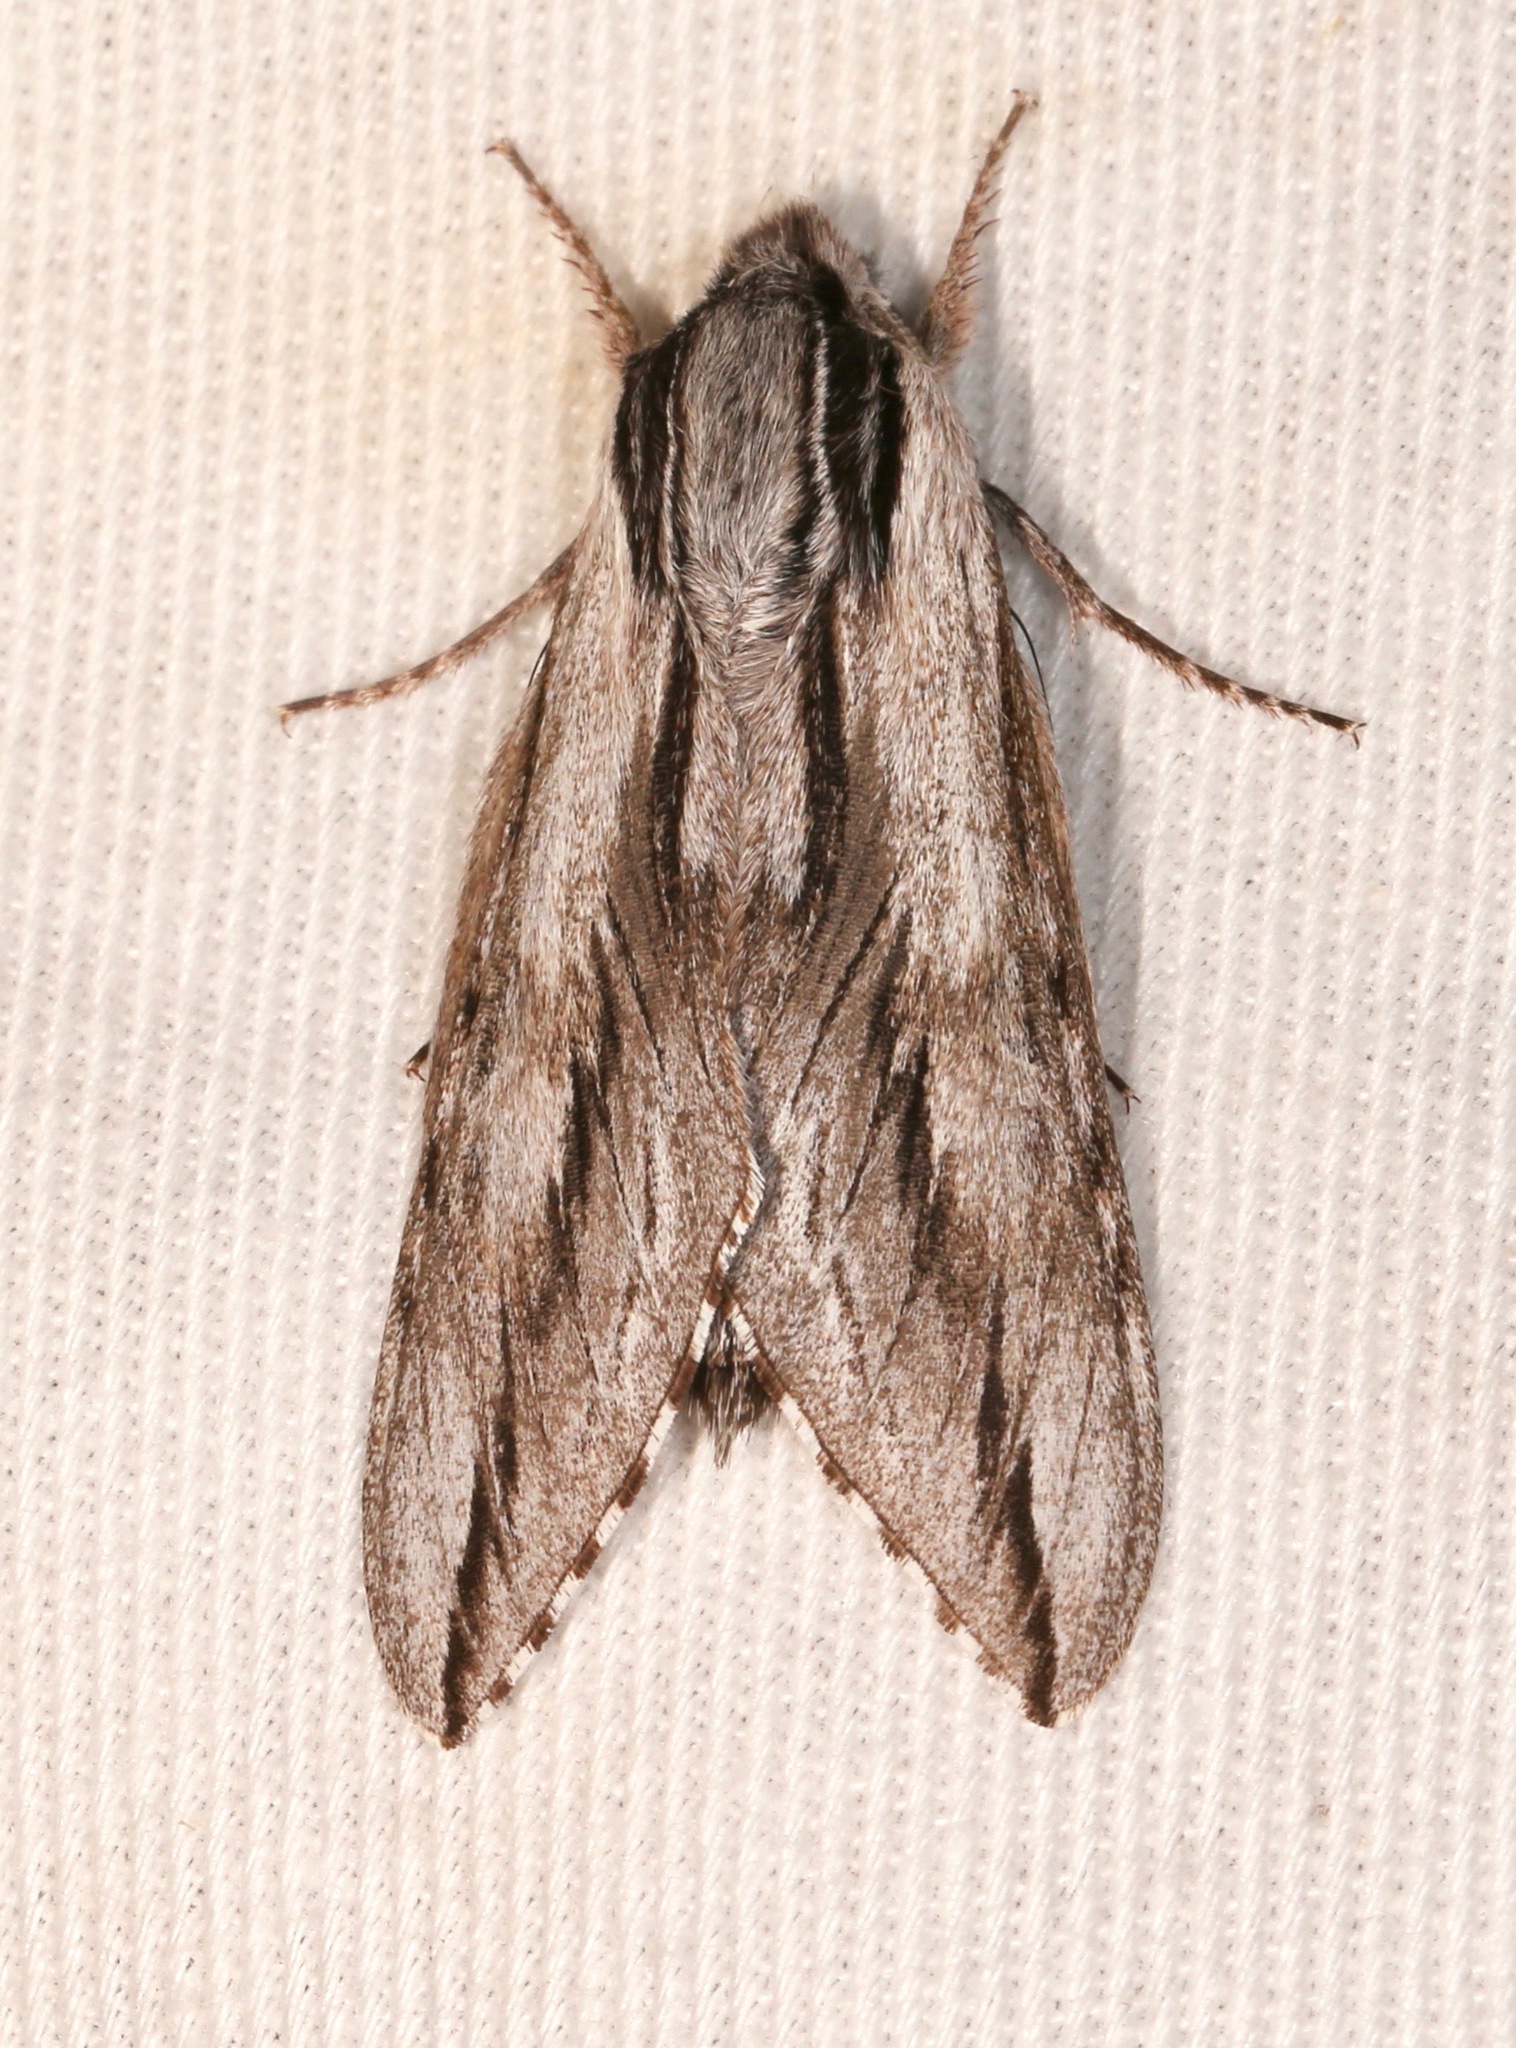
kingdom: Animalia
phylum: Arthropoda
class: Insecta
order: Lepidoptera
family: Sphingidae
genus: Sphinx
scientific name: Sphinx dollii
